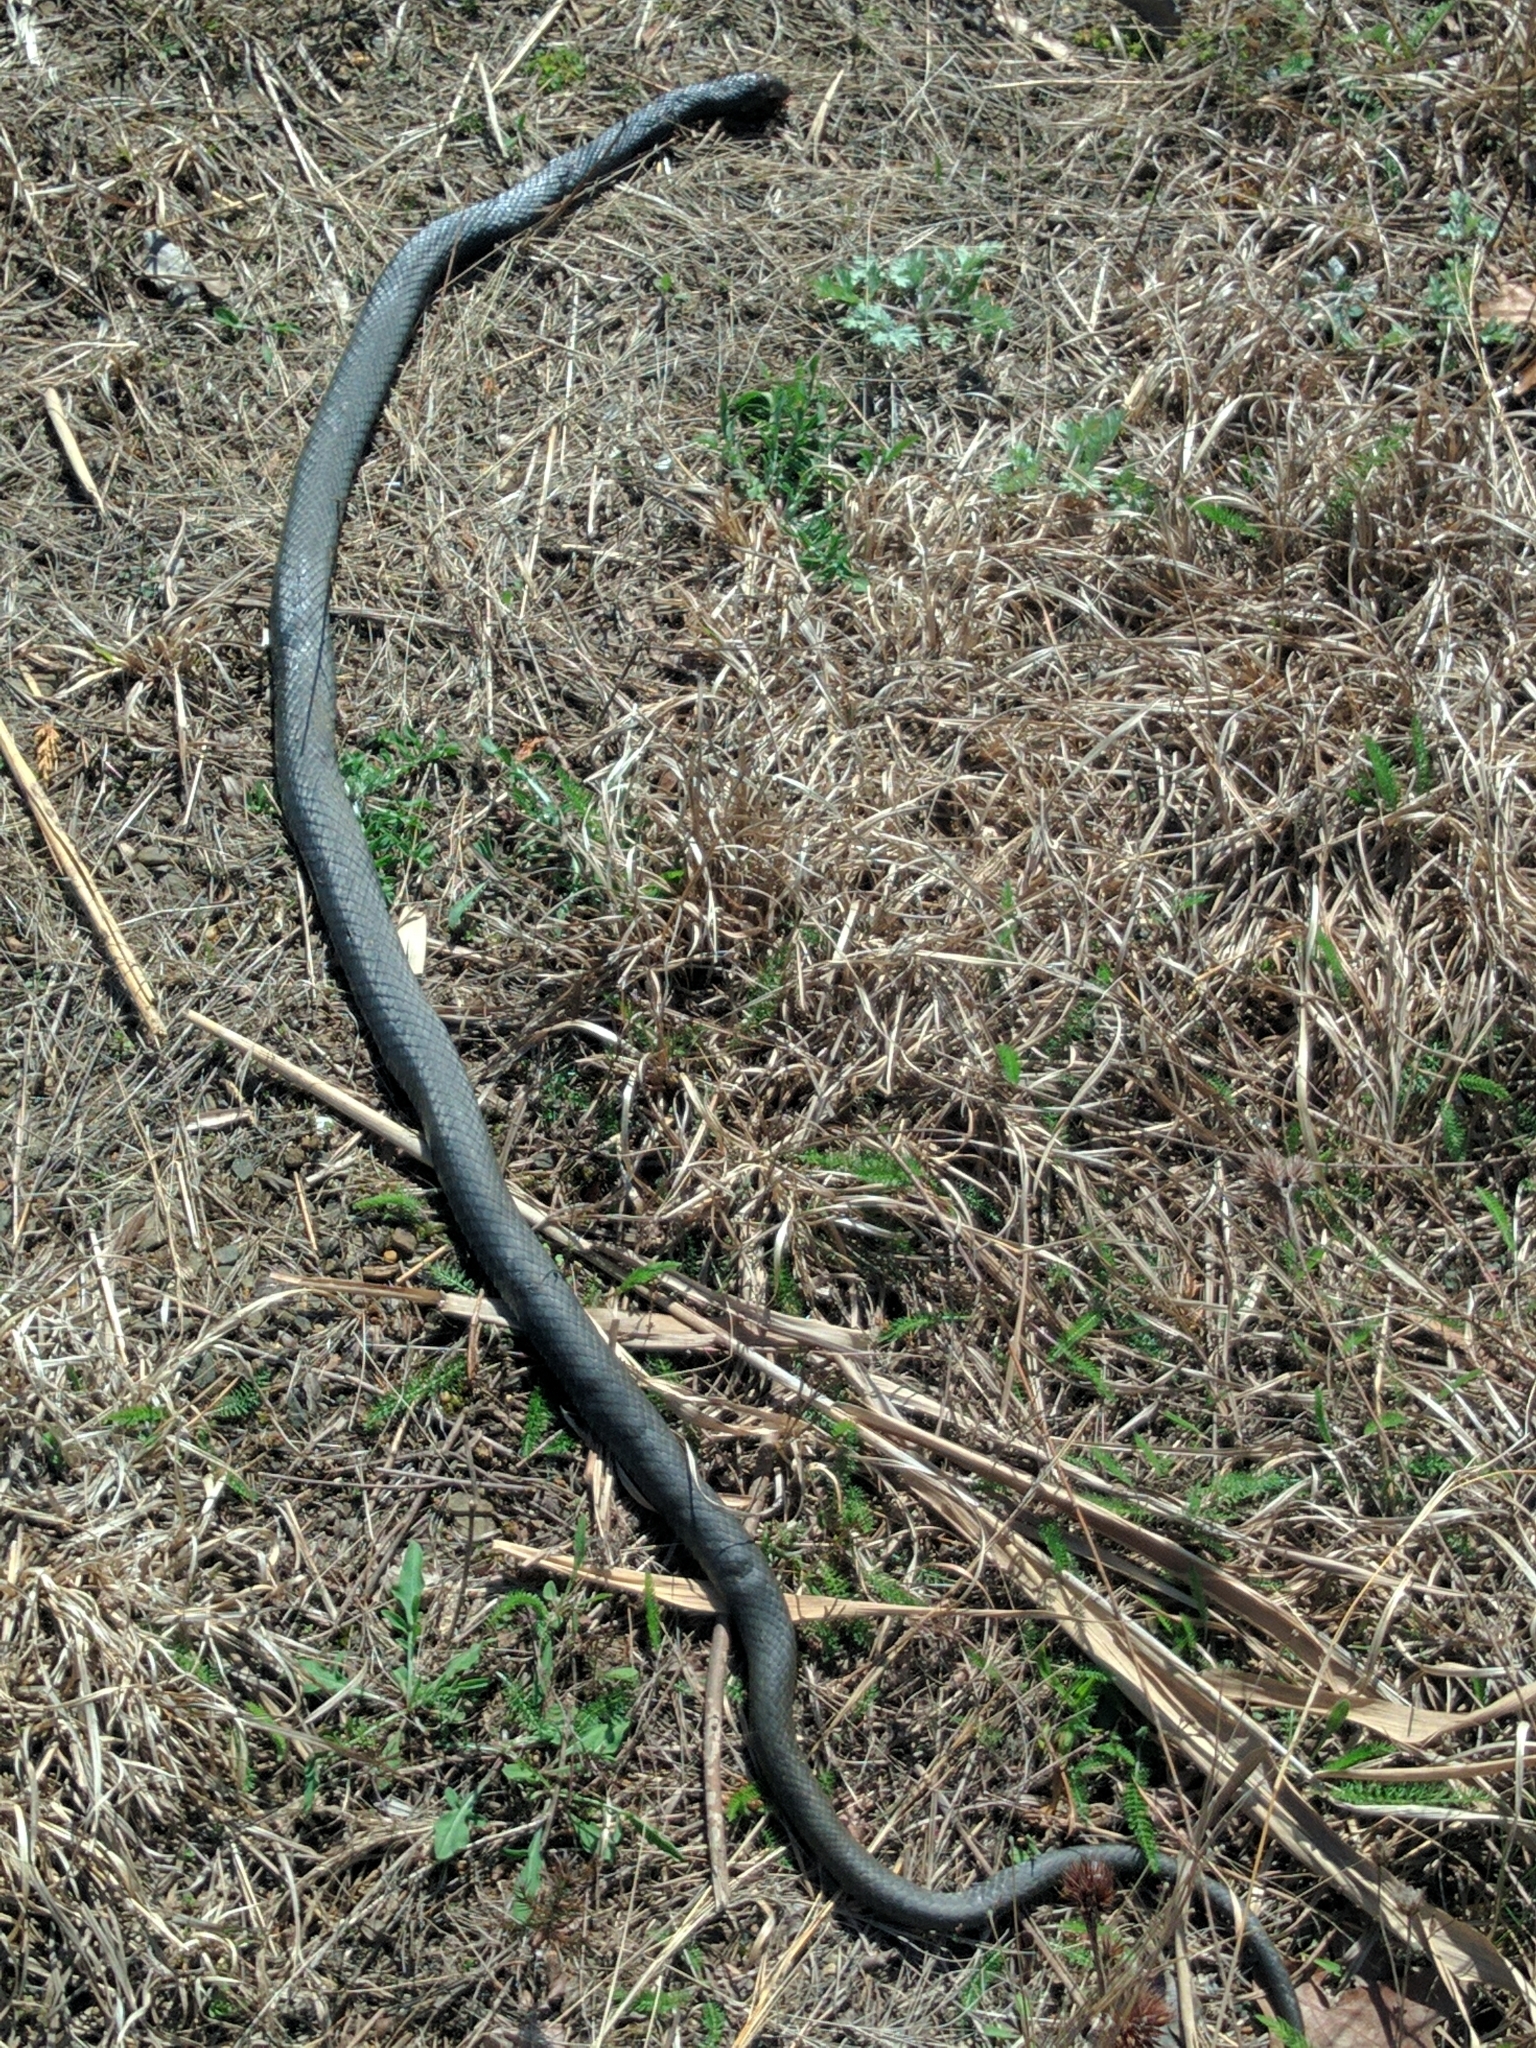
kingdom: Animalia
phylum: Chordata
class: Squamata
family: Colubridae
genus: Coluber
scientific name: Coluber constrictor
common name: Eastern racer
